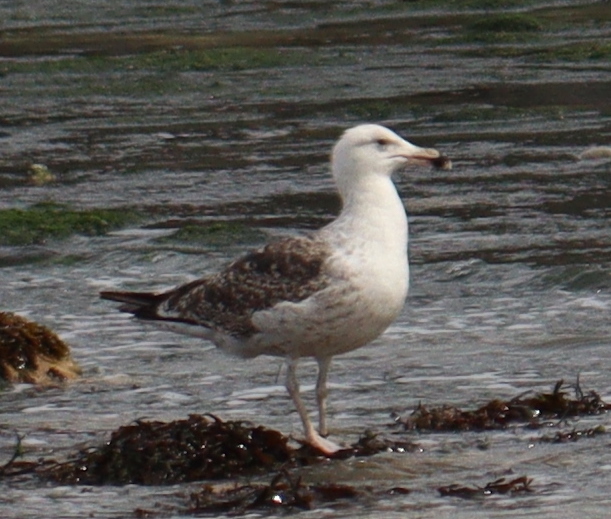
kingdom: Animalia
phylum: Chordata
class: Aves
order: Charadriiformes
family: Laridae
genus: Larus
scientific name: Larus marinus
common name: Great black-backed gull
